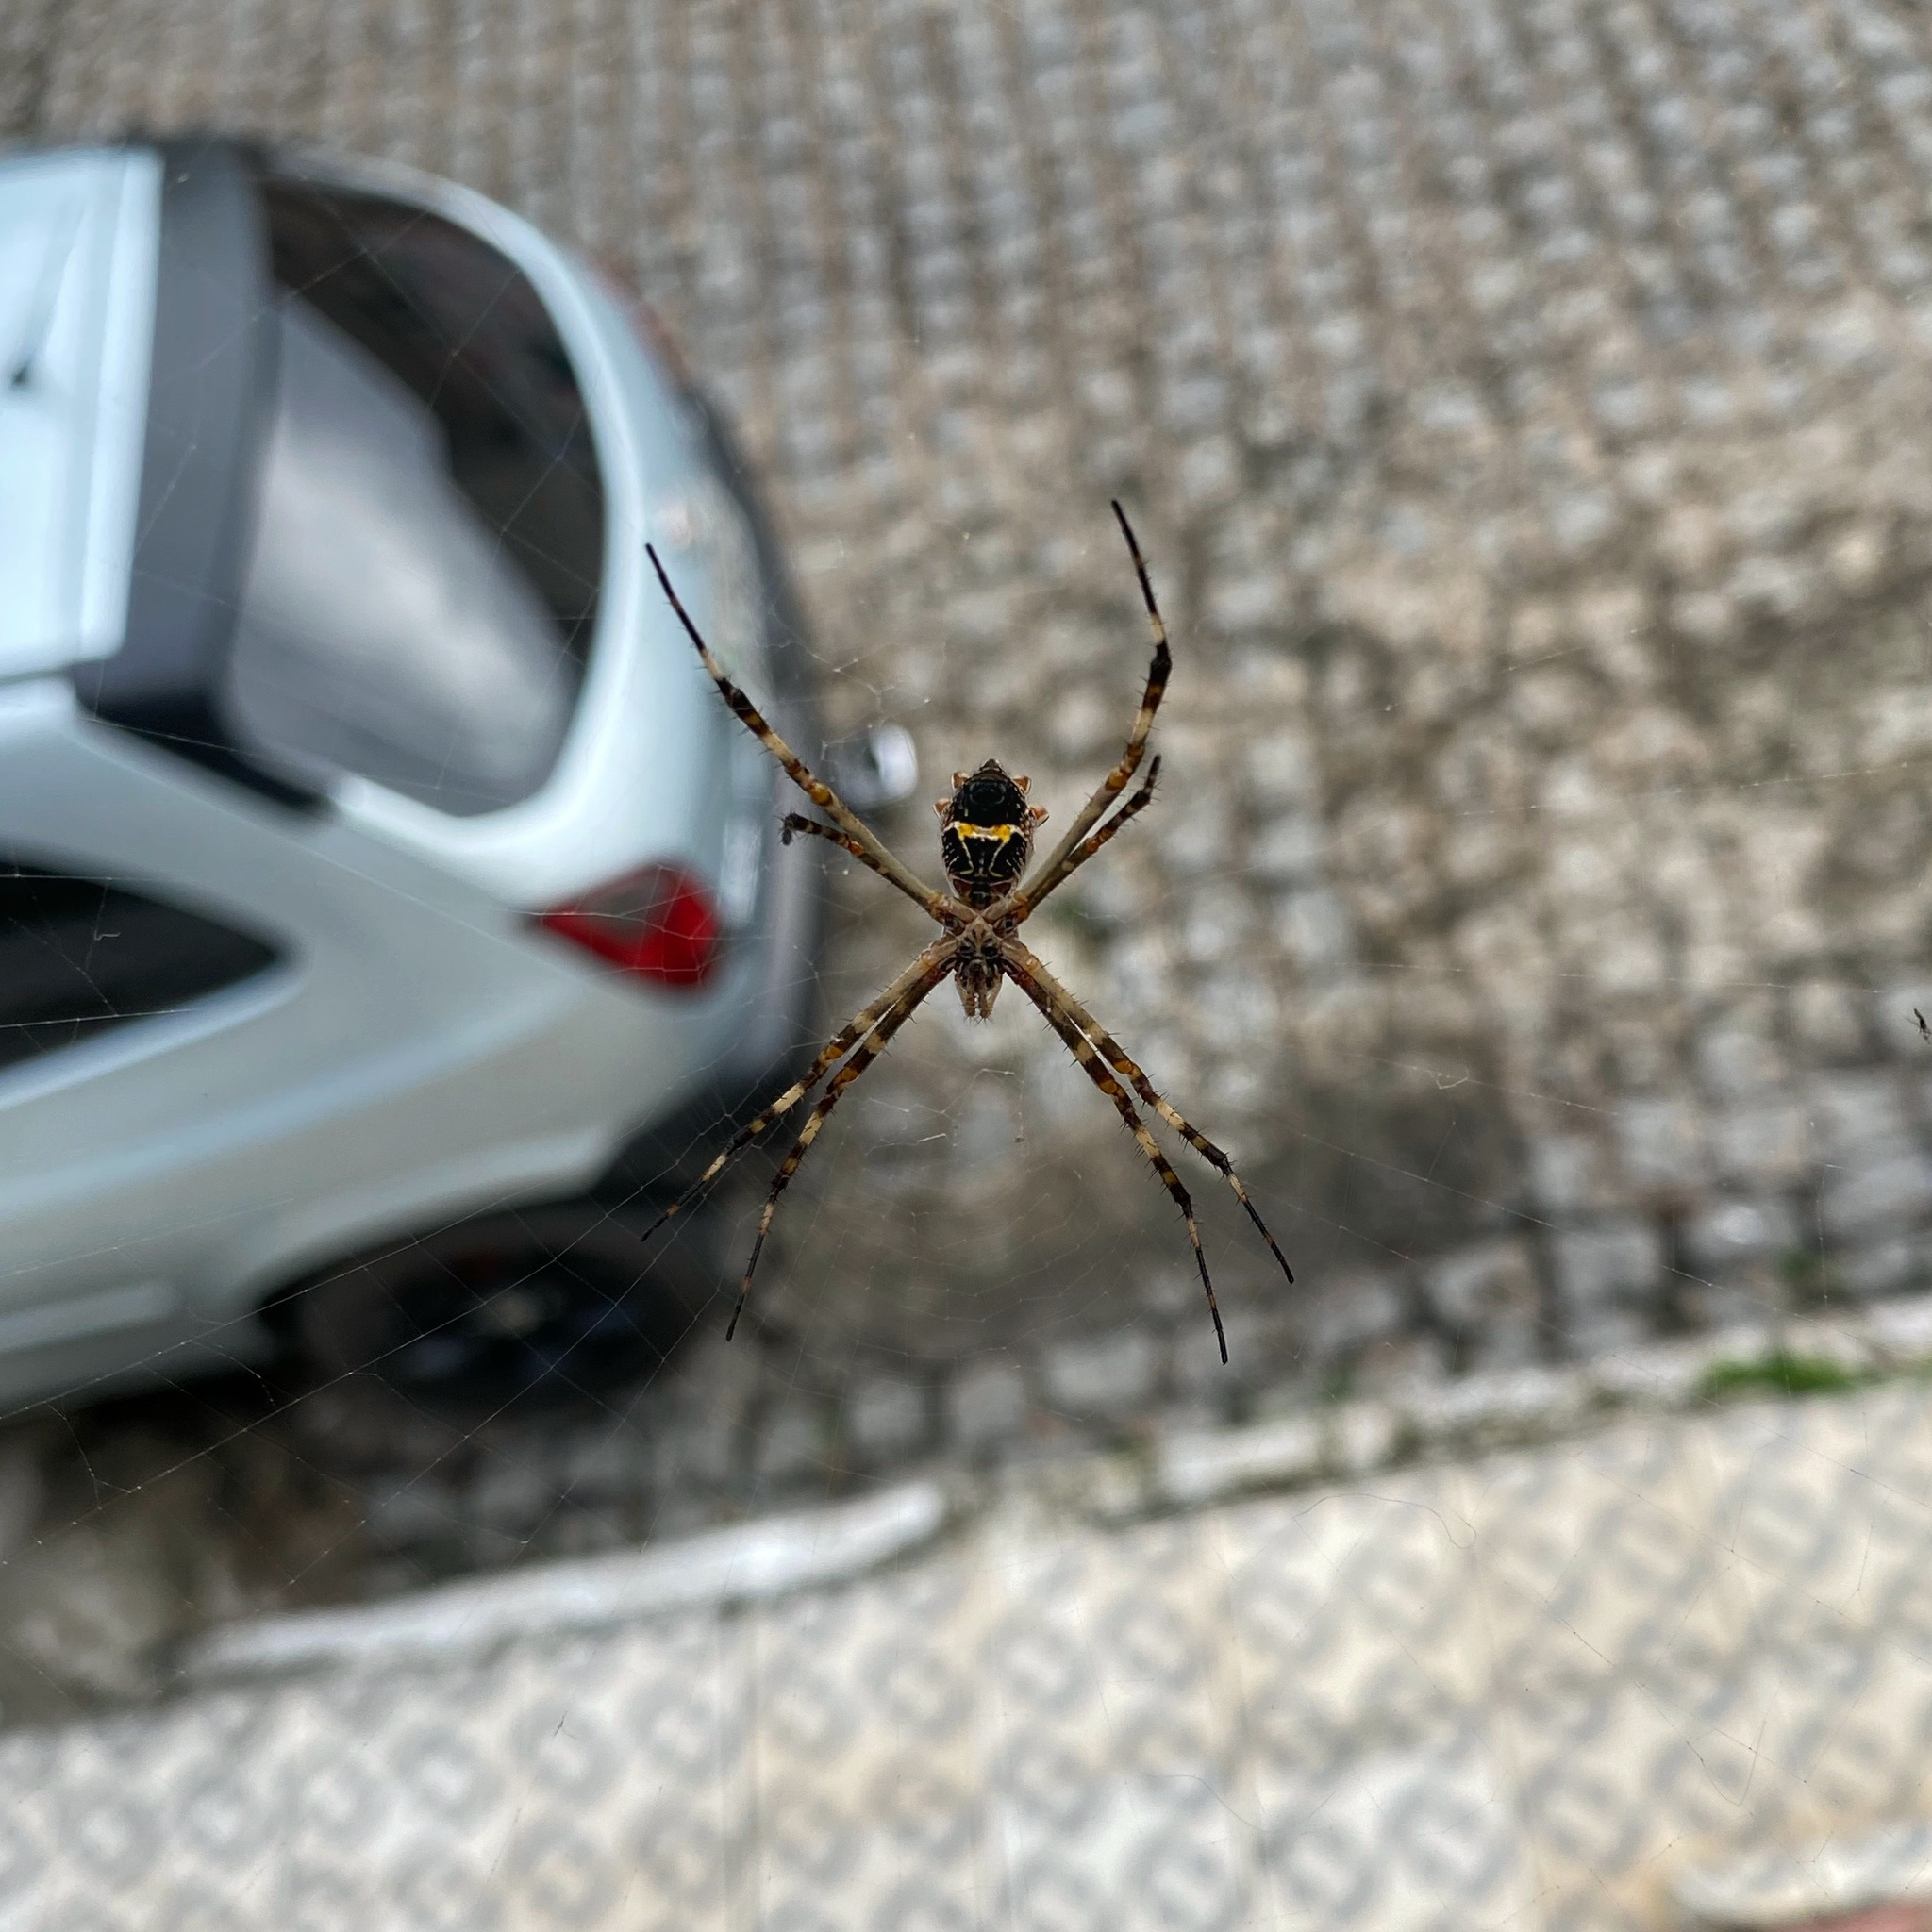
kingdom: Animalia
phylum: Arthropoda
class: Arachnida
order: Araneae
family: Araneidae
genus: Argiope
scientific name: Argiope argentata
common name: Orb weavers
